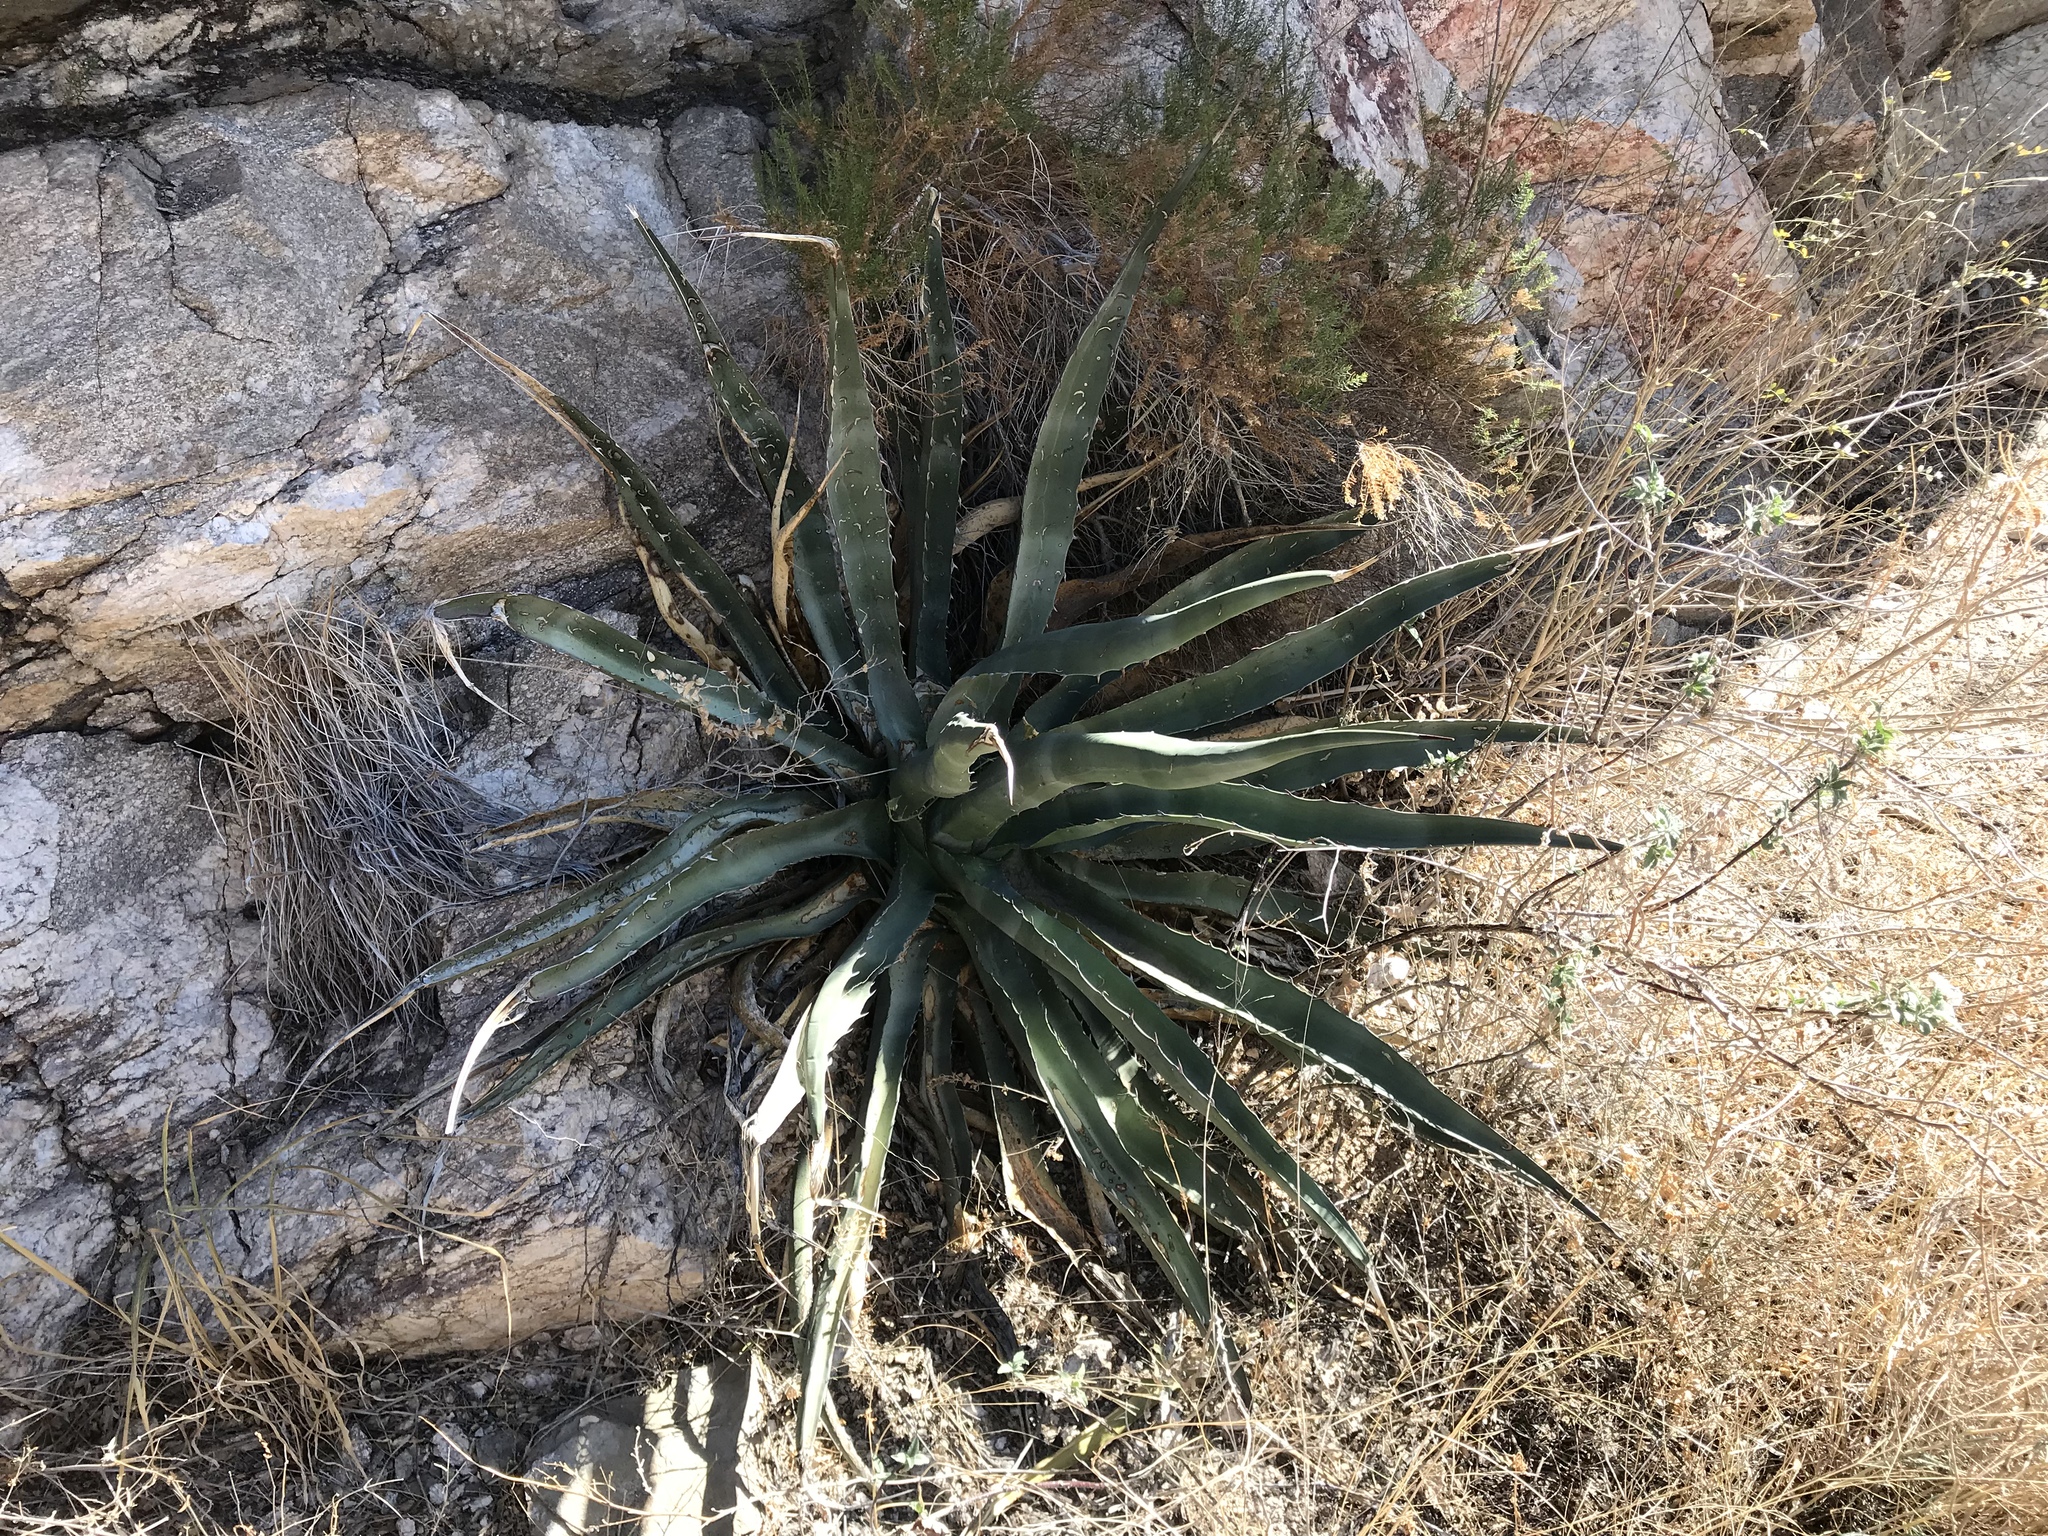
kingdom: Plantae
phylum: Tracheophyta
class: Liliopsida
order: Asparagales
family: Asparagaceae
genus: Agave
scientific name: Agave palmeri
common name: Palmer agave
